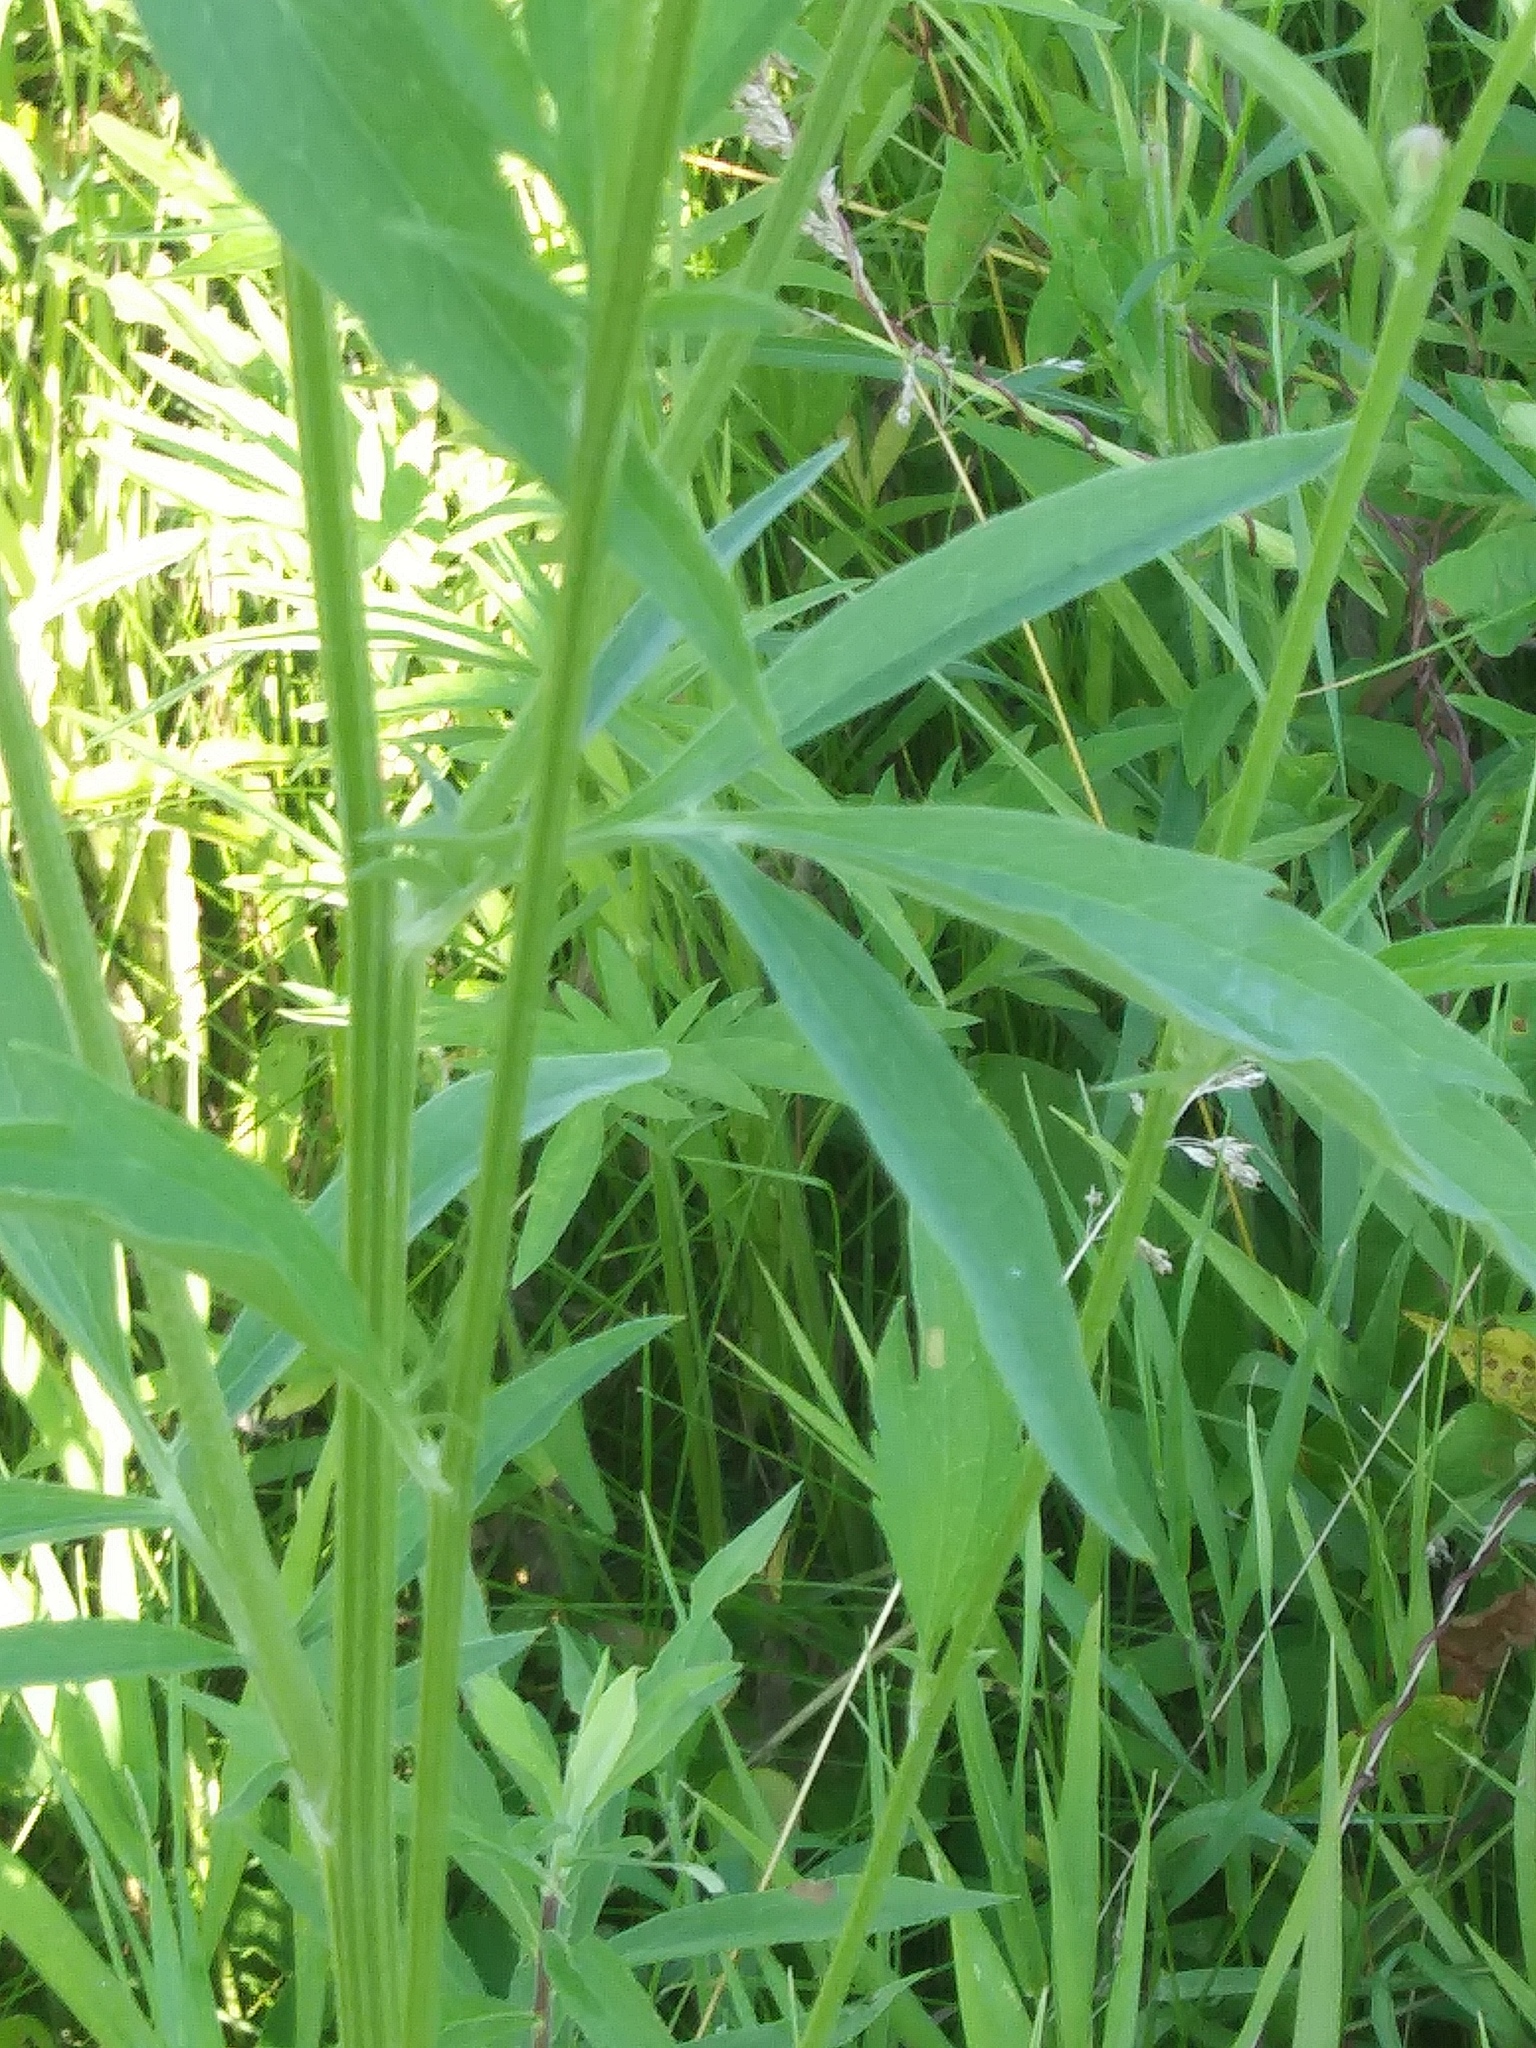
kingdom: Plantae
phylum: Tracheophyta
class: Magnoliopsida
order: Asterales
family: Asteraceae
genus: Ratibida
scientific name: Ratibida pinnata
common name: Drooping prairie-coneflower
